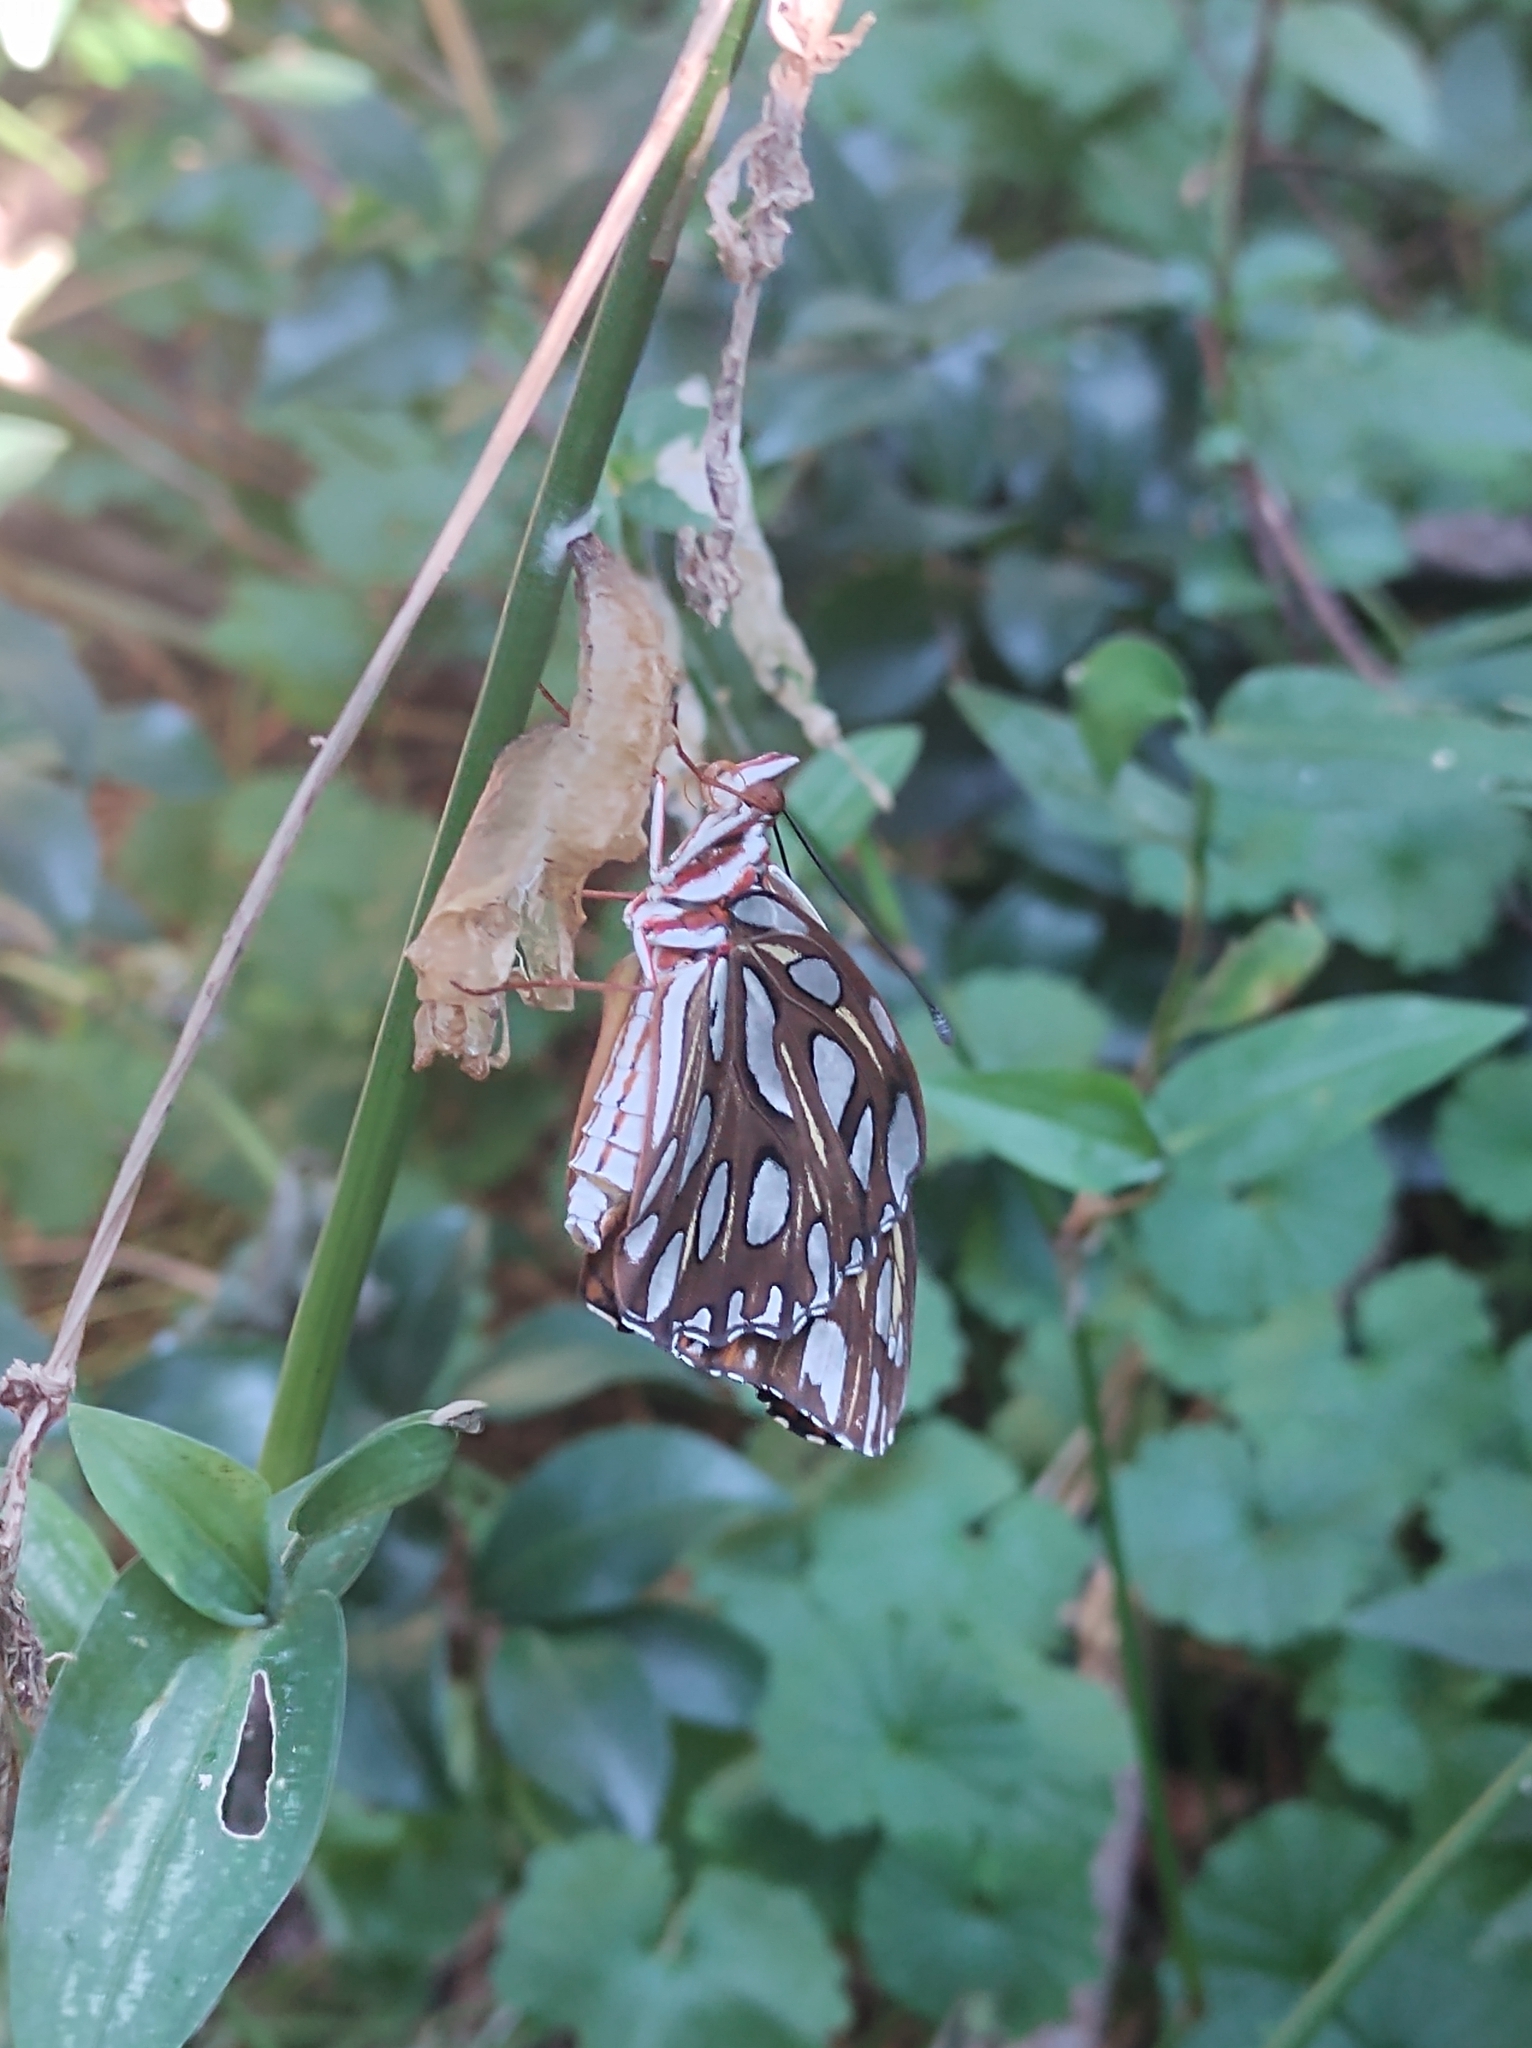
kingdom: Animalia
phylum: Arthropoda
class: Insecta
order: Lepidoptera
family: Nymphalidae
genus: Dione
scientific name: Dione vanillae
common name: Gulf fritillary
